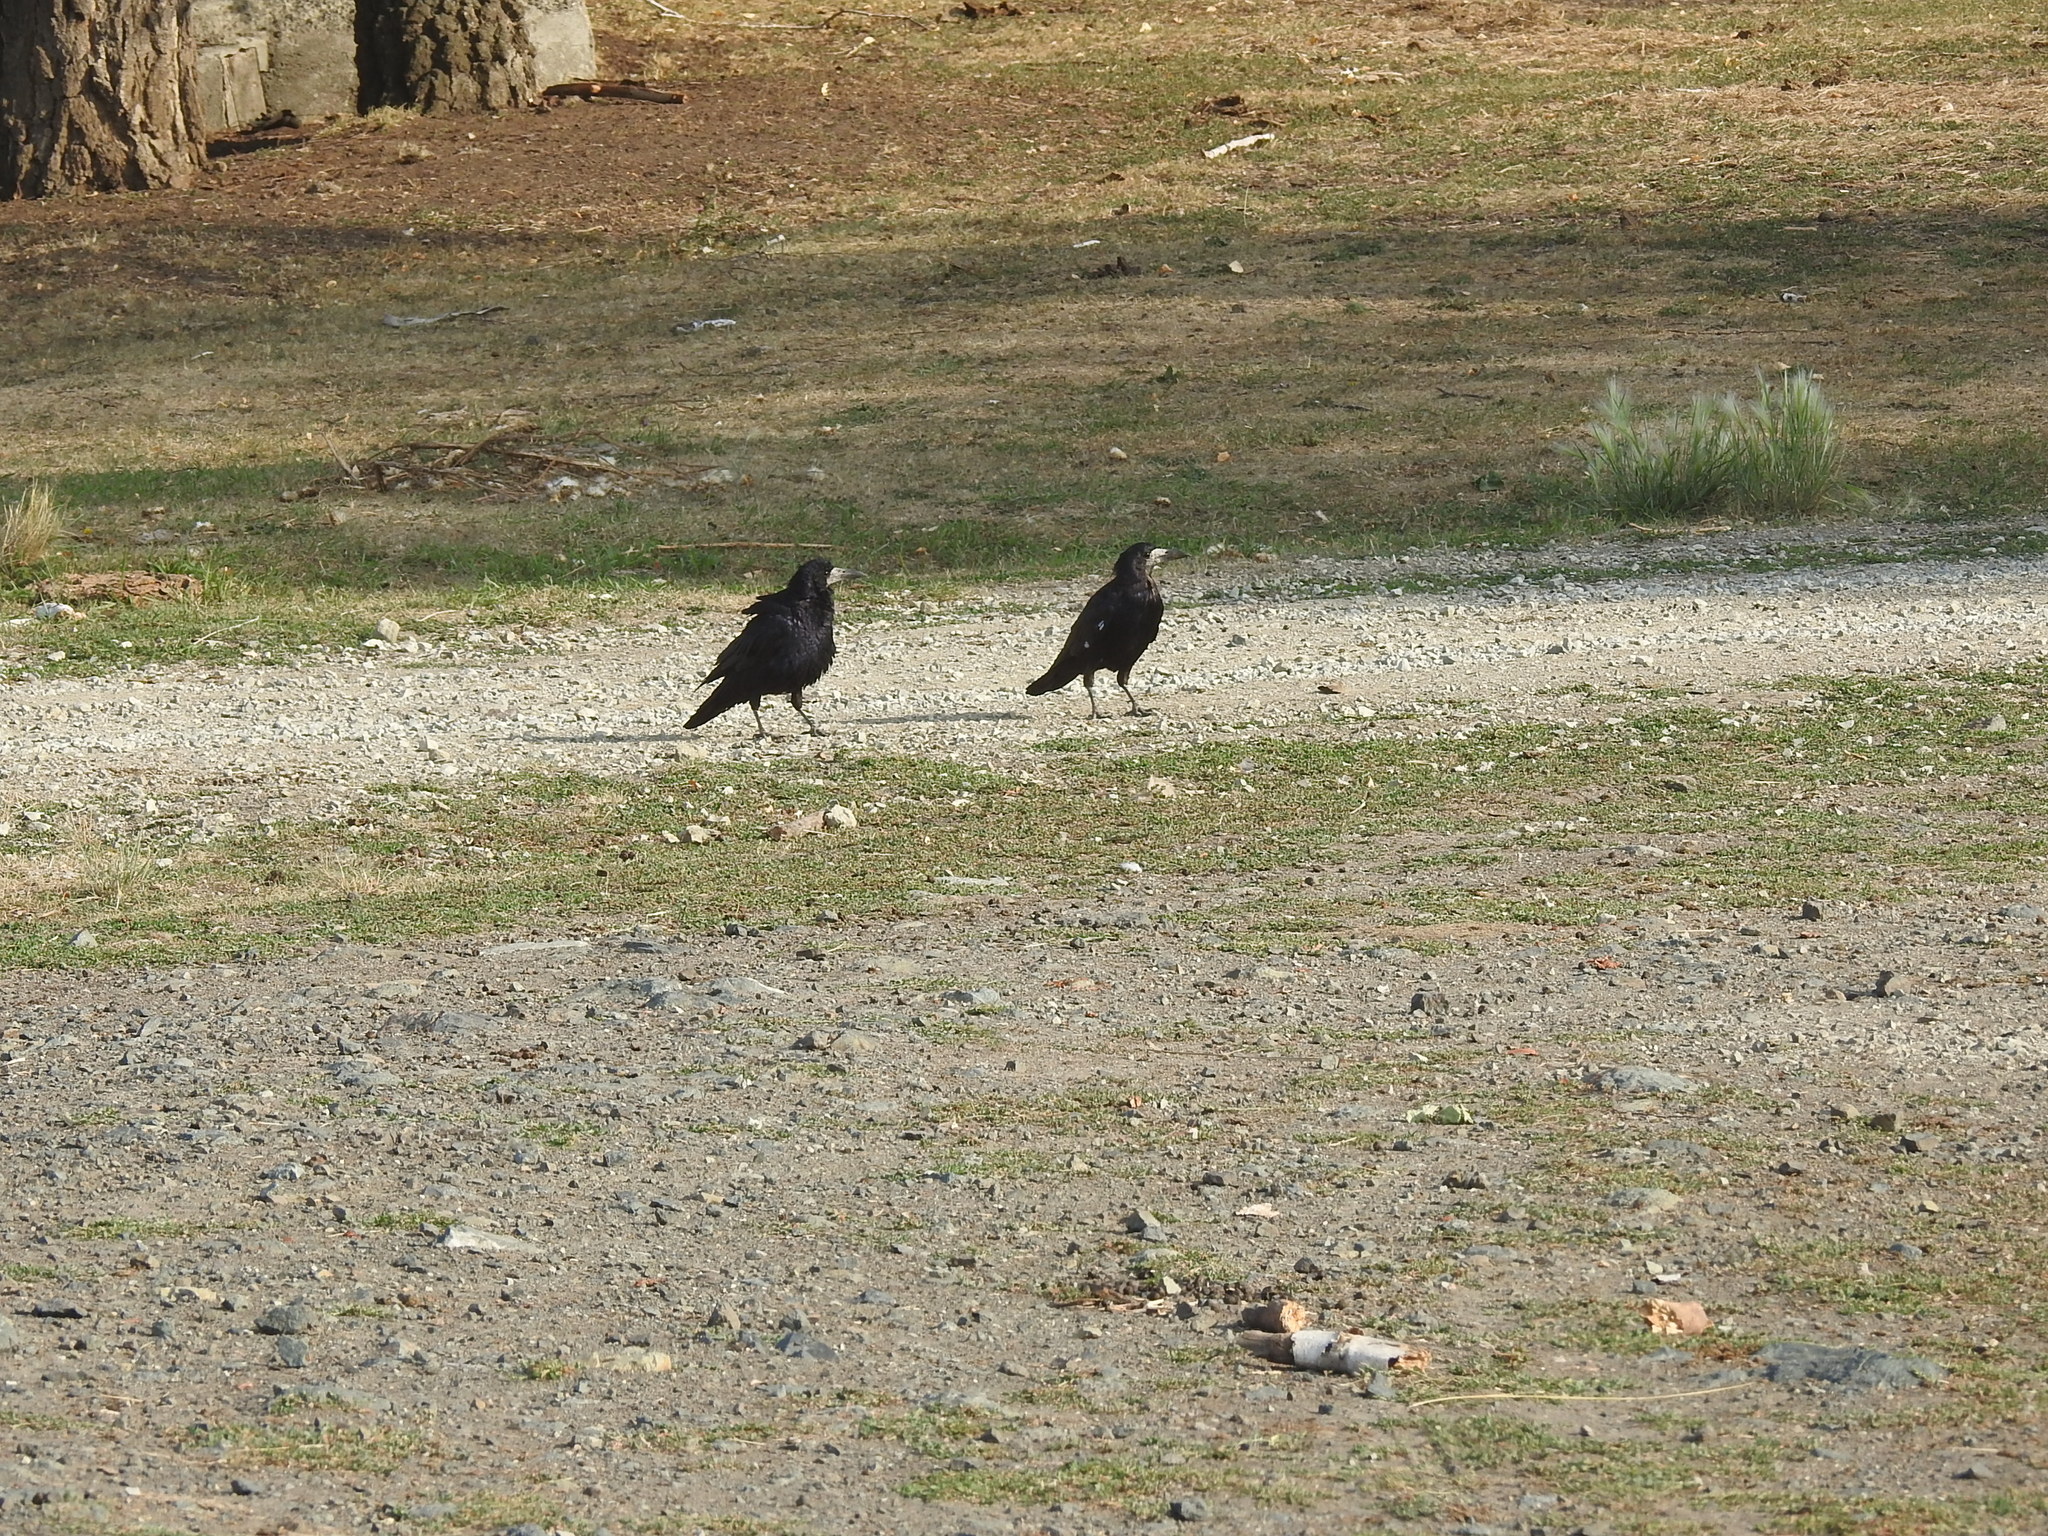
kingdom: Animalia
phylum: Chordata
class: Aves
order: Passeriformes
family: Corvidae
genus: Corvus
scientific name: Corvus frugilegus
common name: Rook
